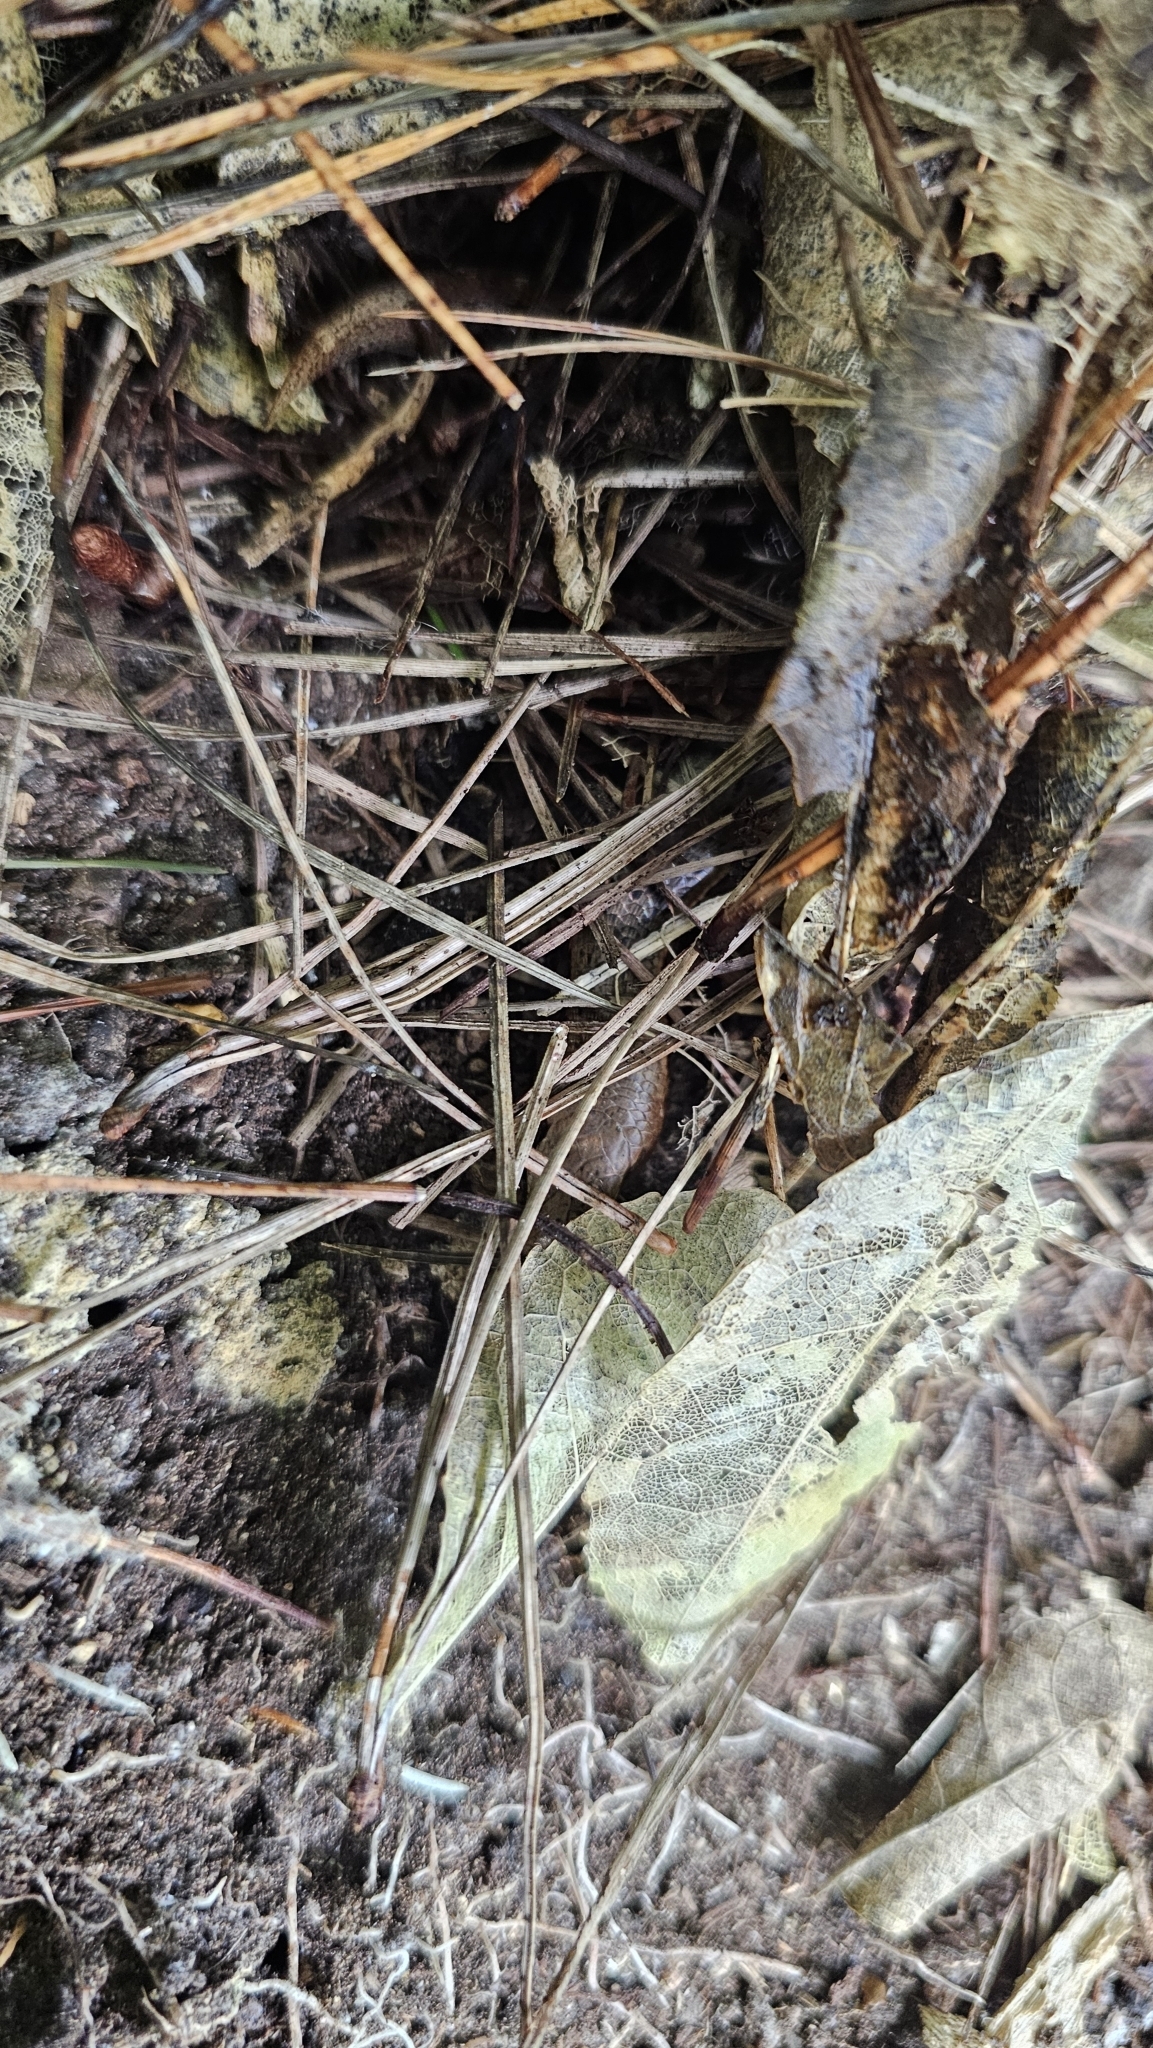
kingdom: Animalia
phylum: Chordata
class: Squamata
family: Scincidae
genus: Oligosoma
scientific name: Oligosoma ornatum
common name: Gray's ornate skink
